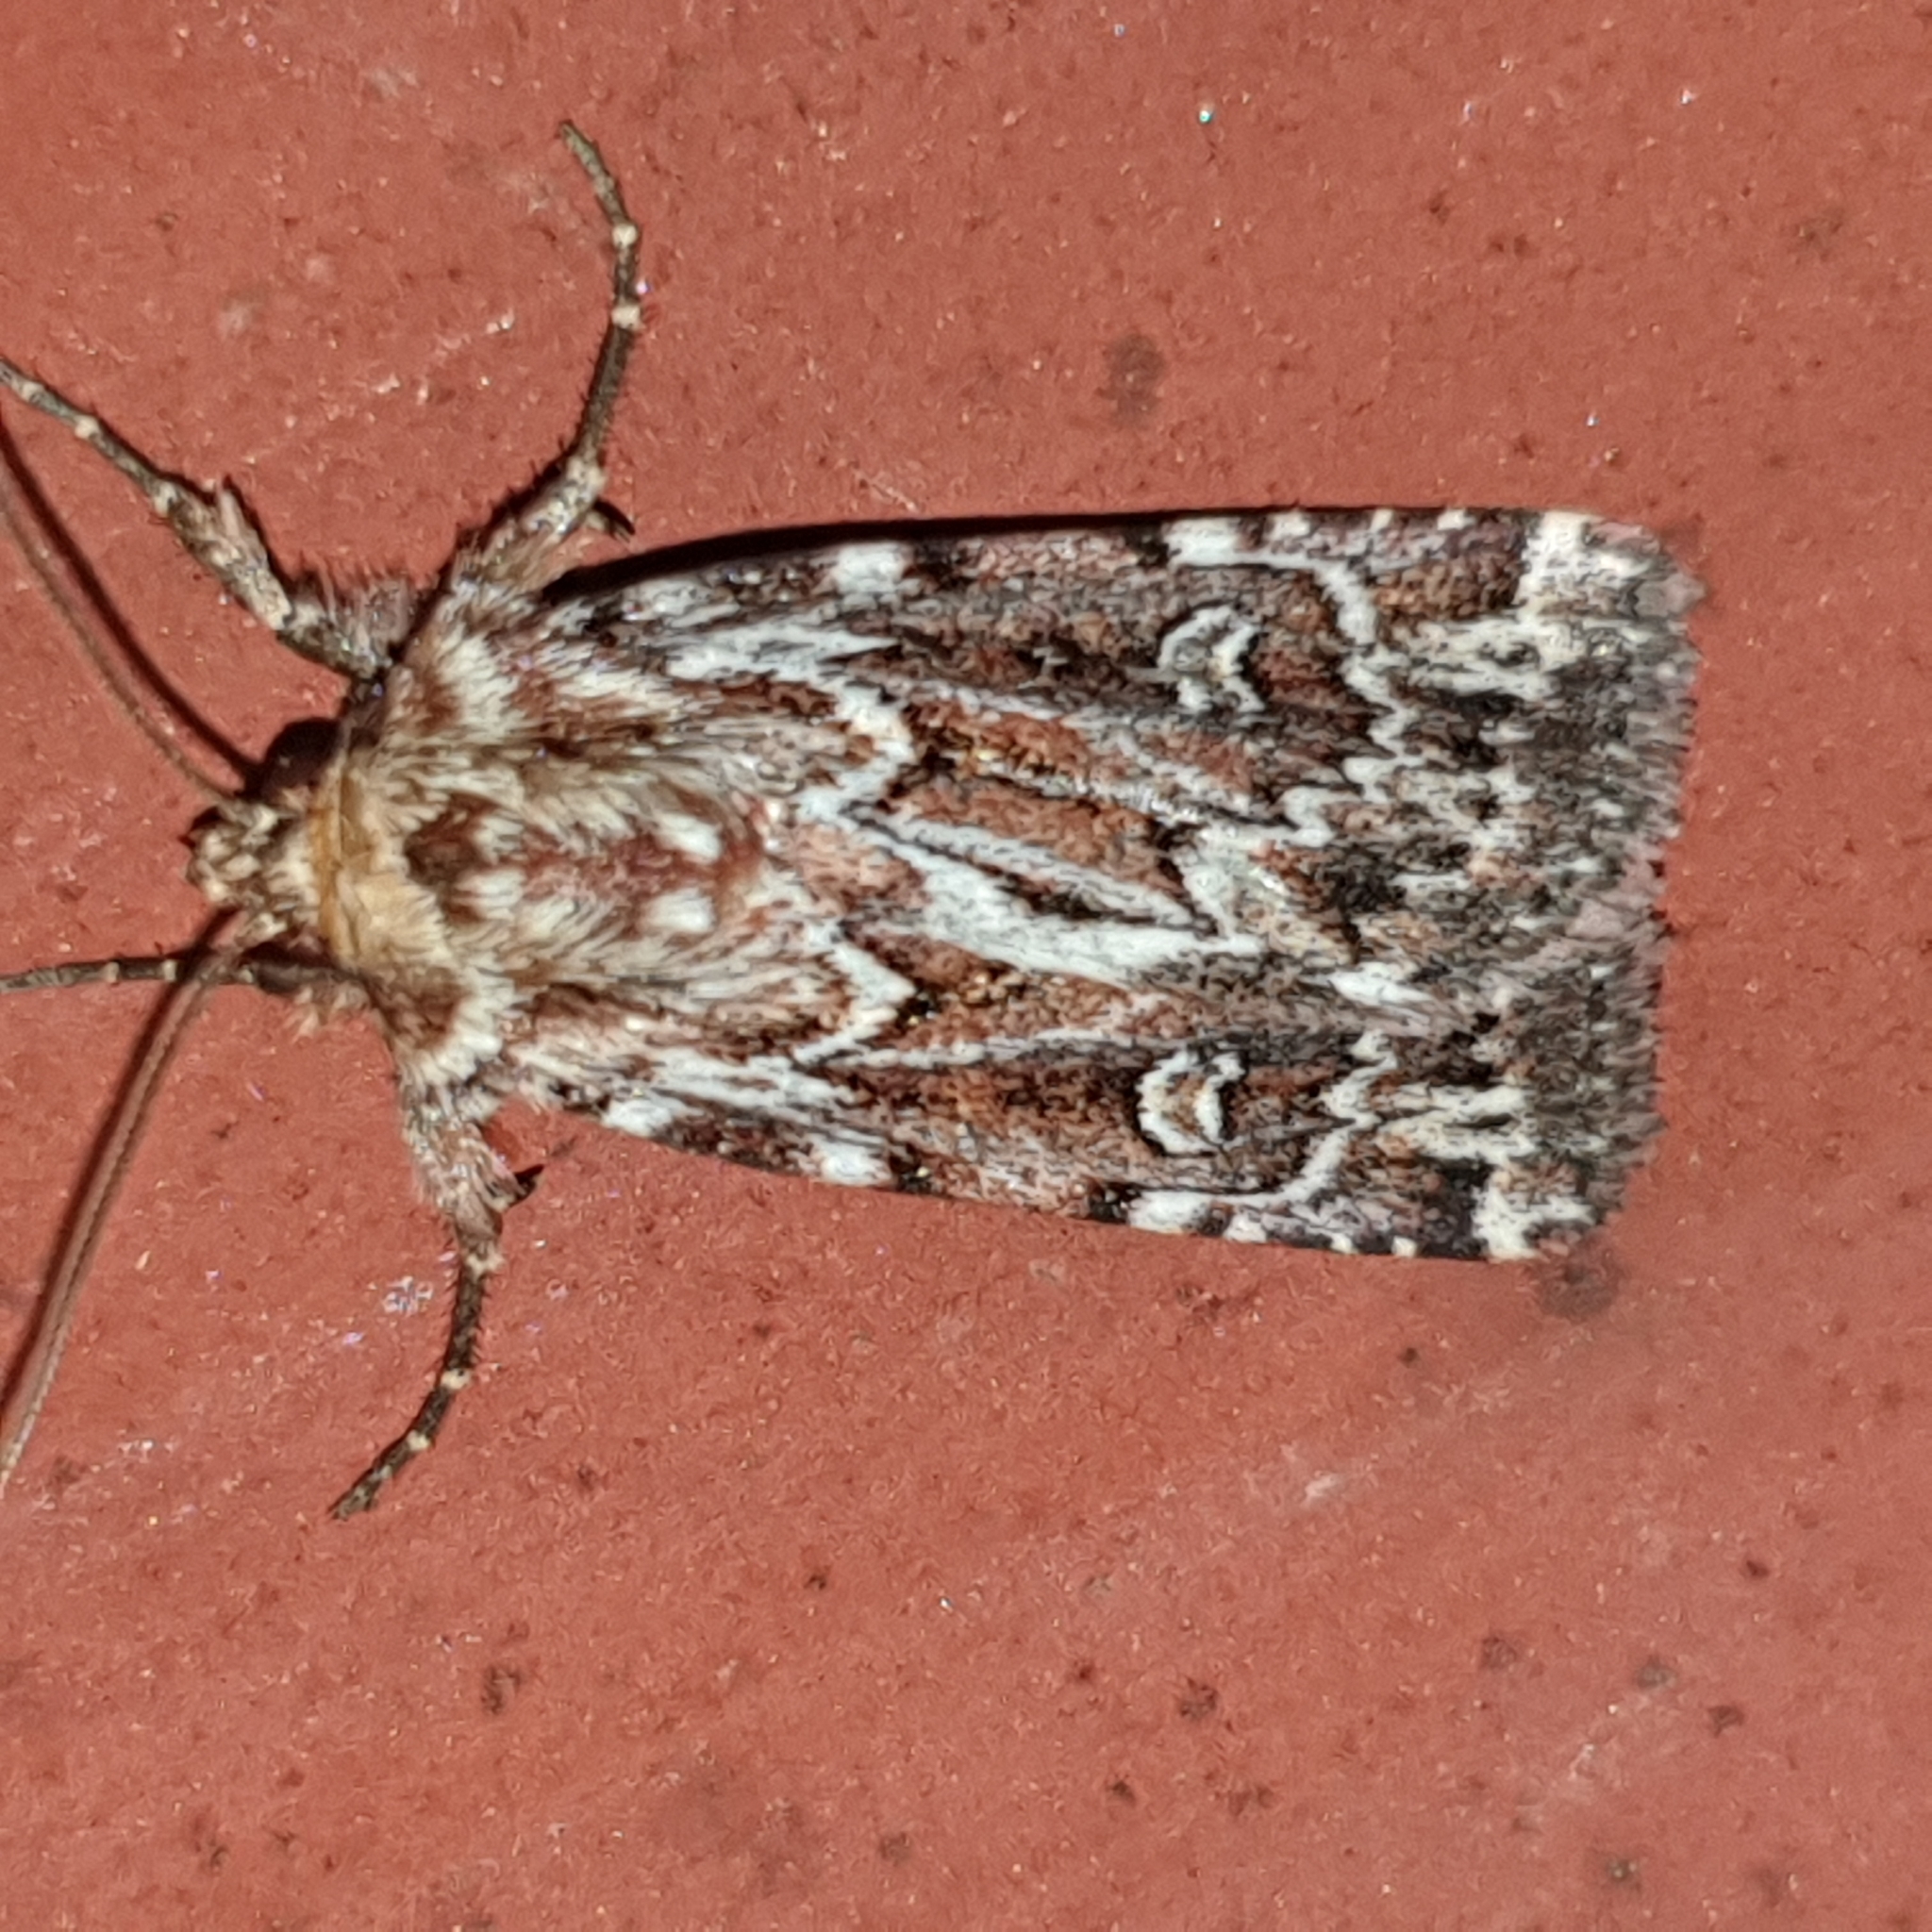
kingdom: Animalia
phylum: Arthropoda
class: Insecta
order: Lepidoptera
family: Noctuidae
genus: Lycophotia
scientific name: Lycophotia porphyrea
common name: True lover's knot
